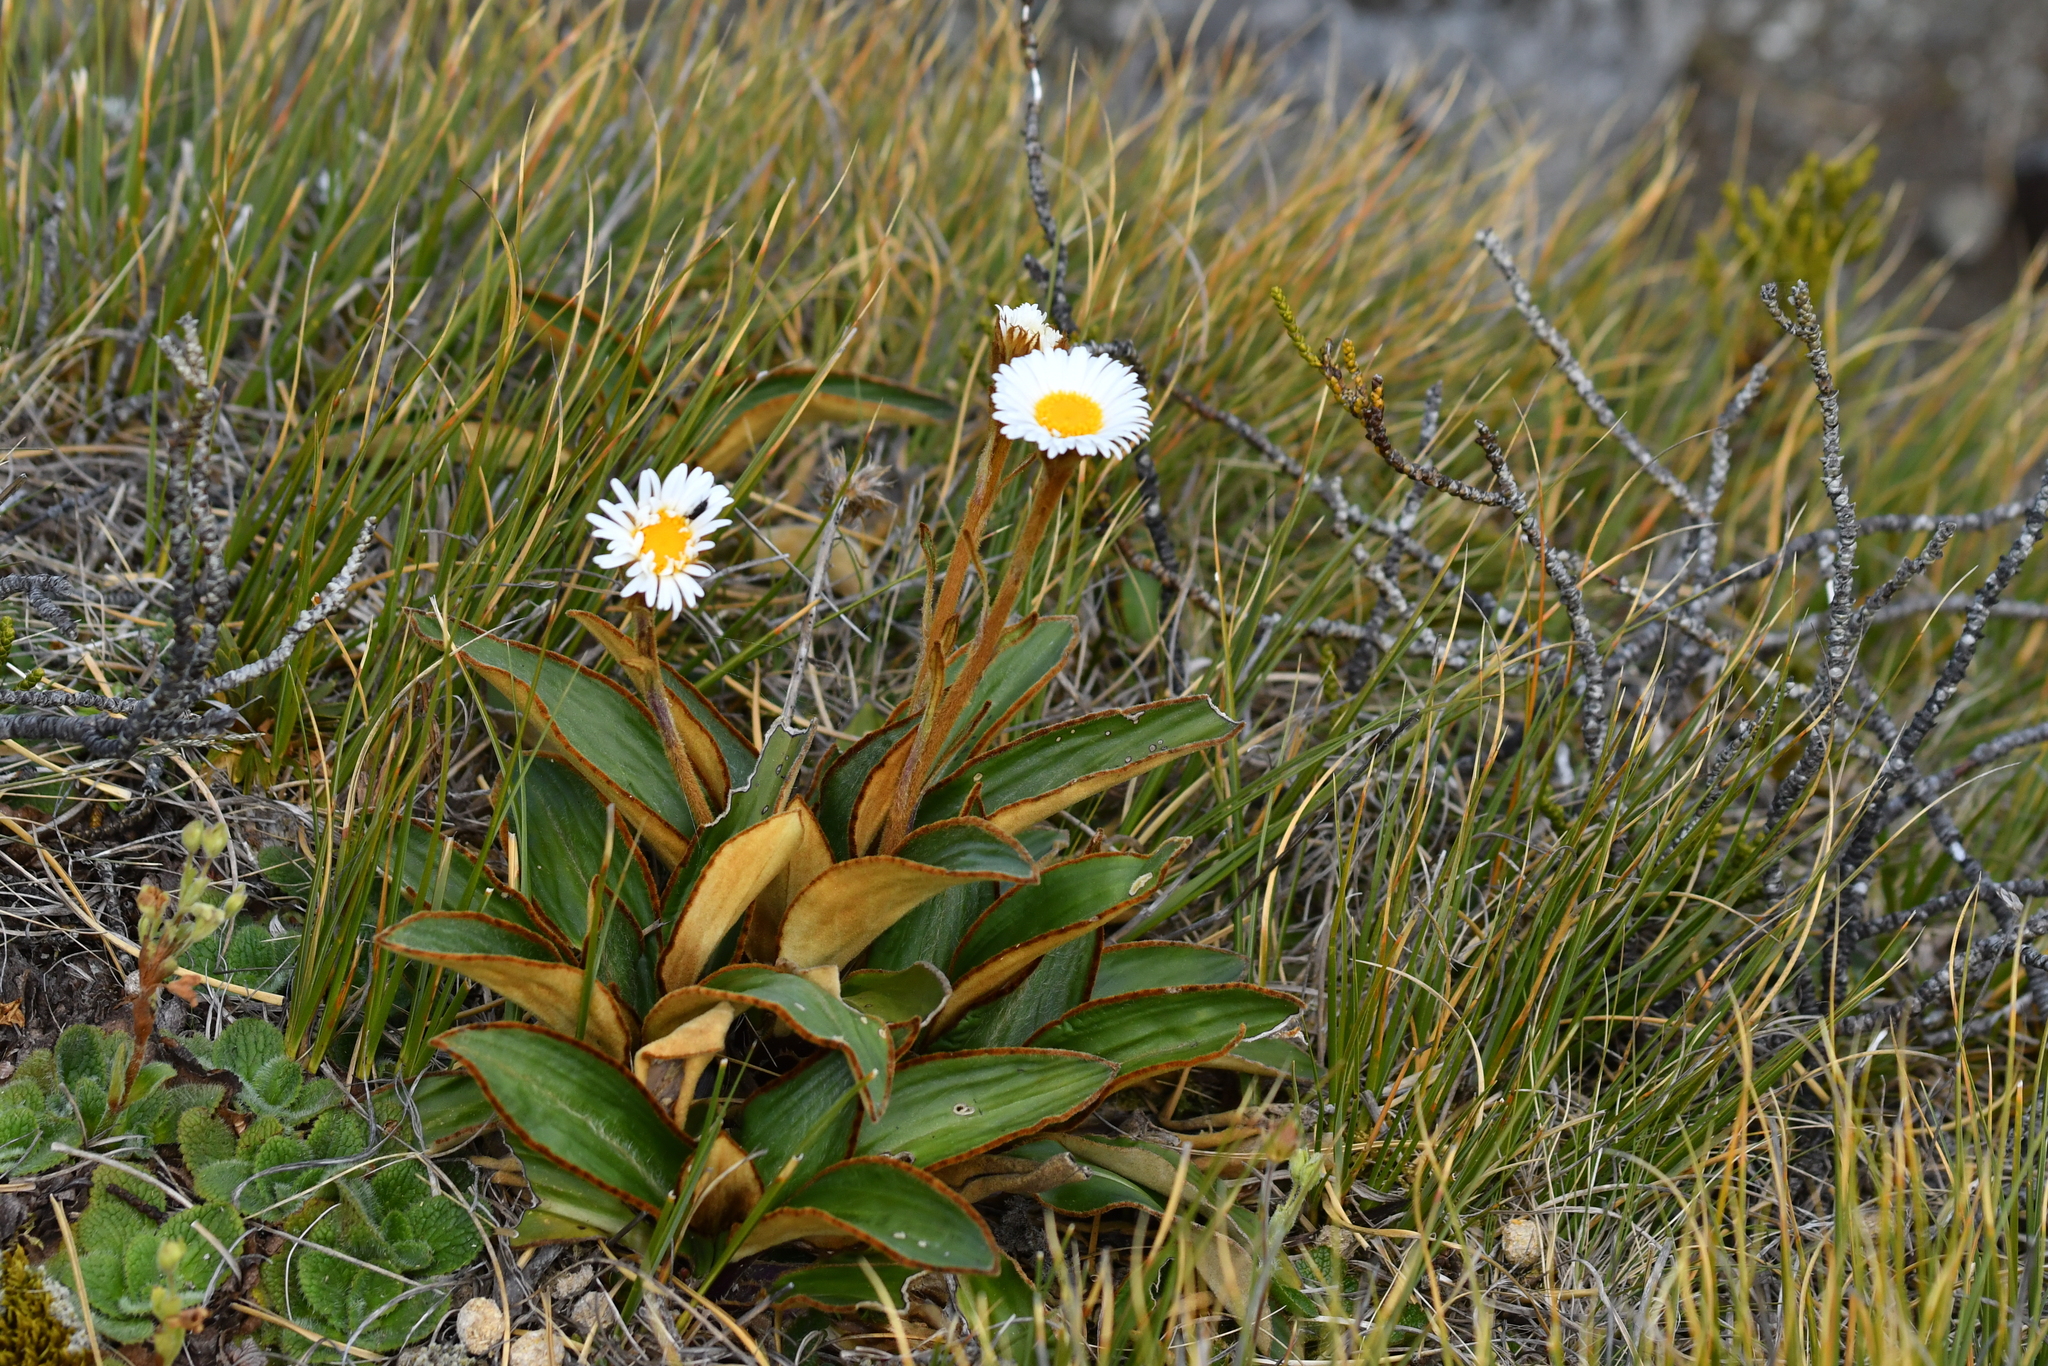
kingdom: Plantae
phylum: Tracheophyta
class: Magnoliopsida
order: Asterales
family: Asteraceae
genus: Celmisia
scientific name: Celmisia traversii
